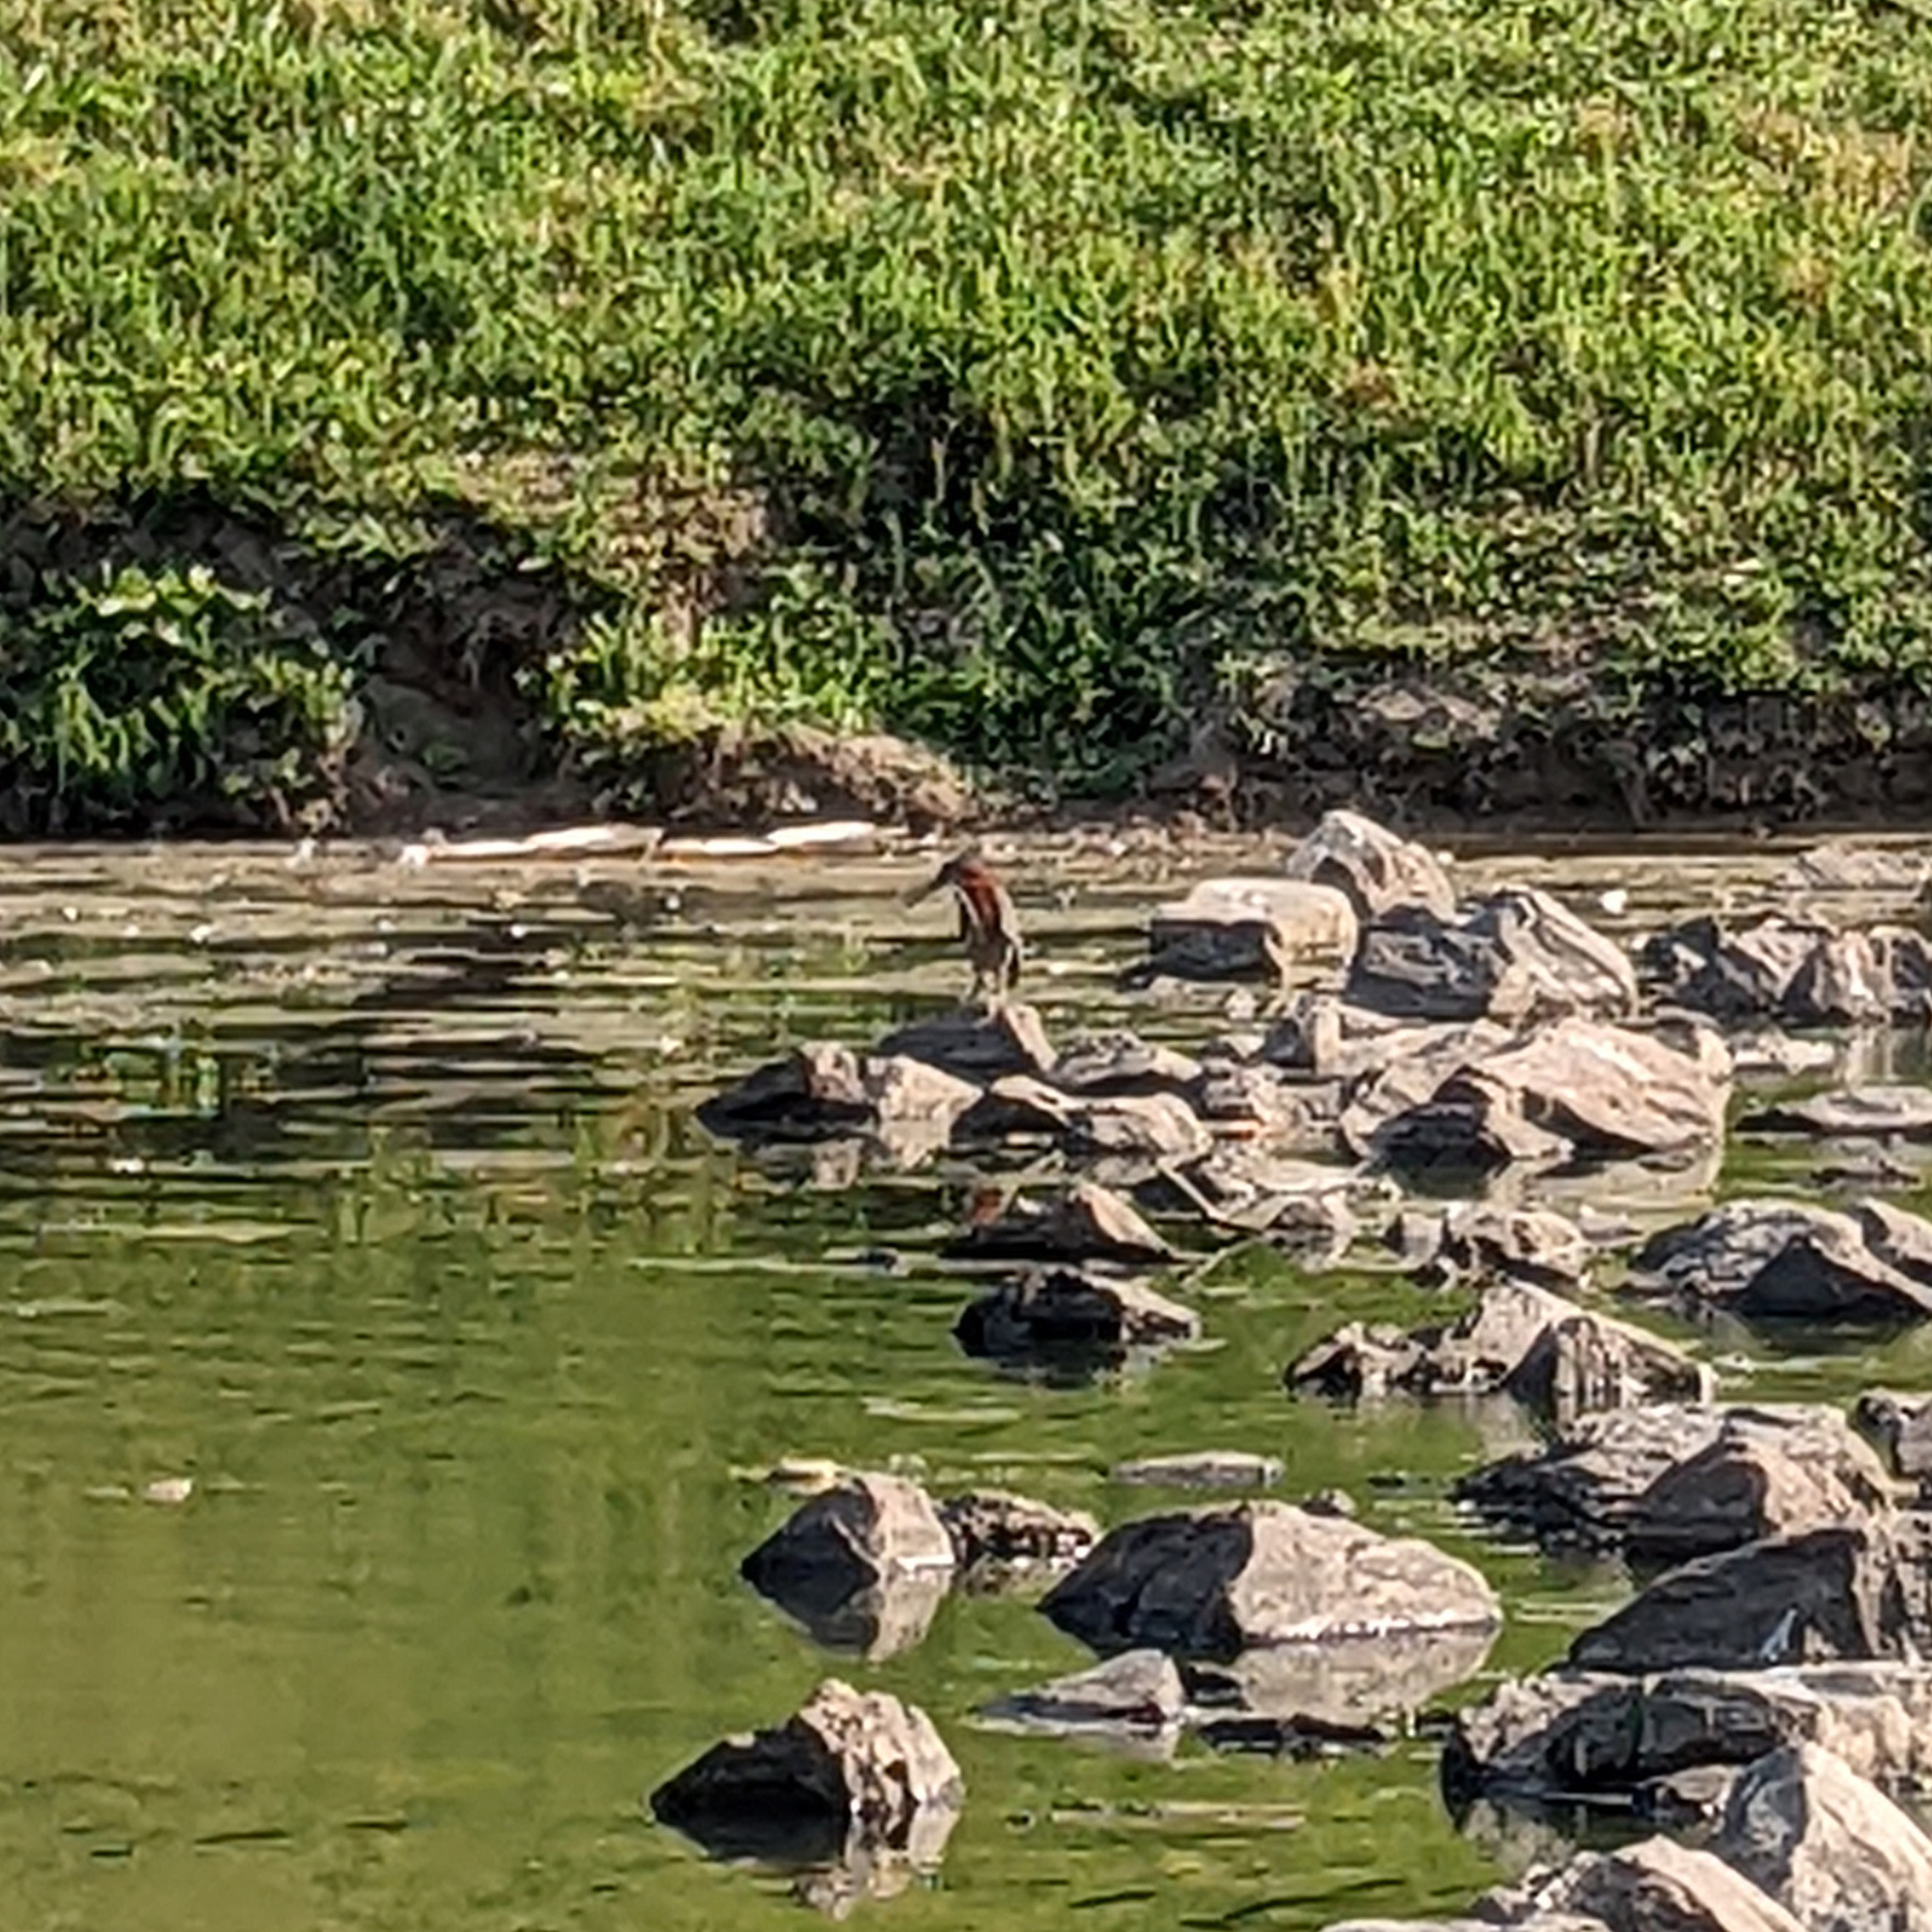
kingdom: Animalia
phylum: Chordata
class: Aves
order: Pelecaniformes
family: Ardeidae
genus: Butorides
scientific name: Butorides virescens
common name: Green heron
